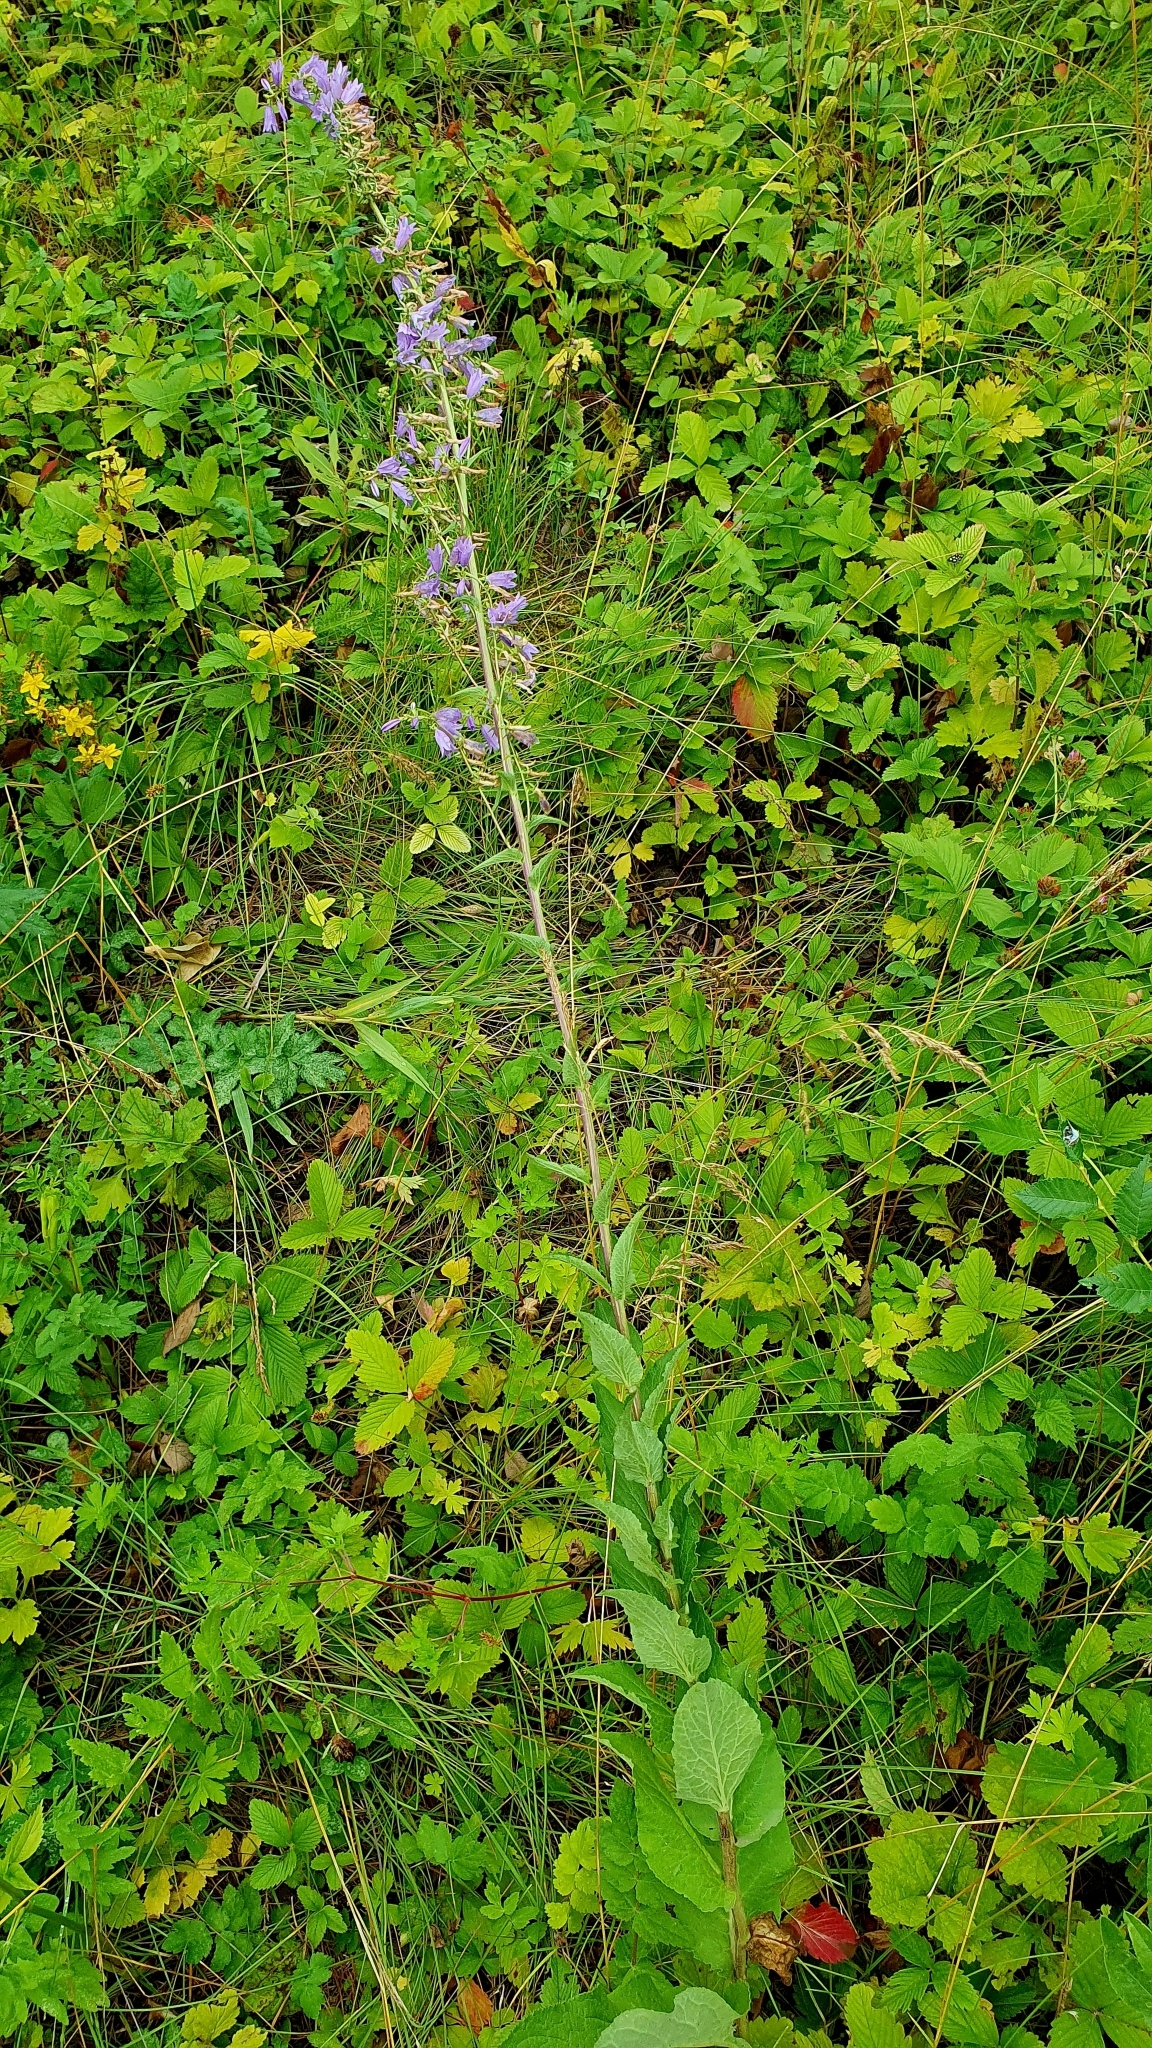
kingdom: Plantae
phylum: Tracheophyta
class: Magnoliopsida
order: Asterales
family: Campanulaceae
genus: Campanula
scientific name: Campanula bononiensis
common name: Pale bellflower
